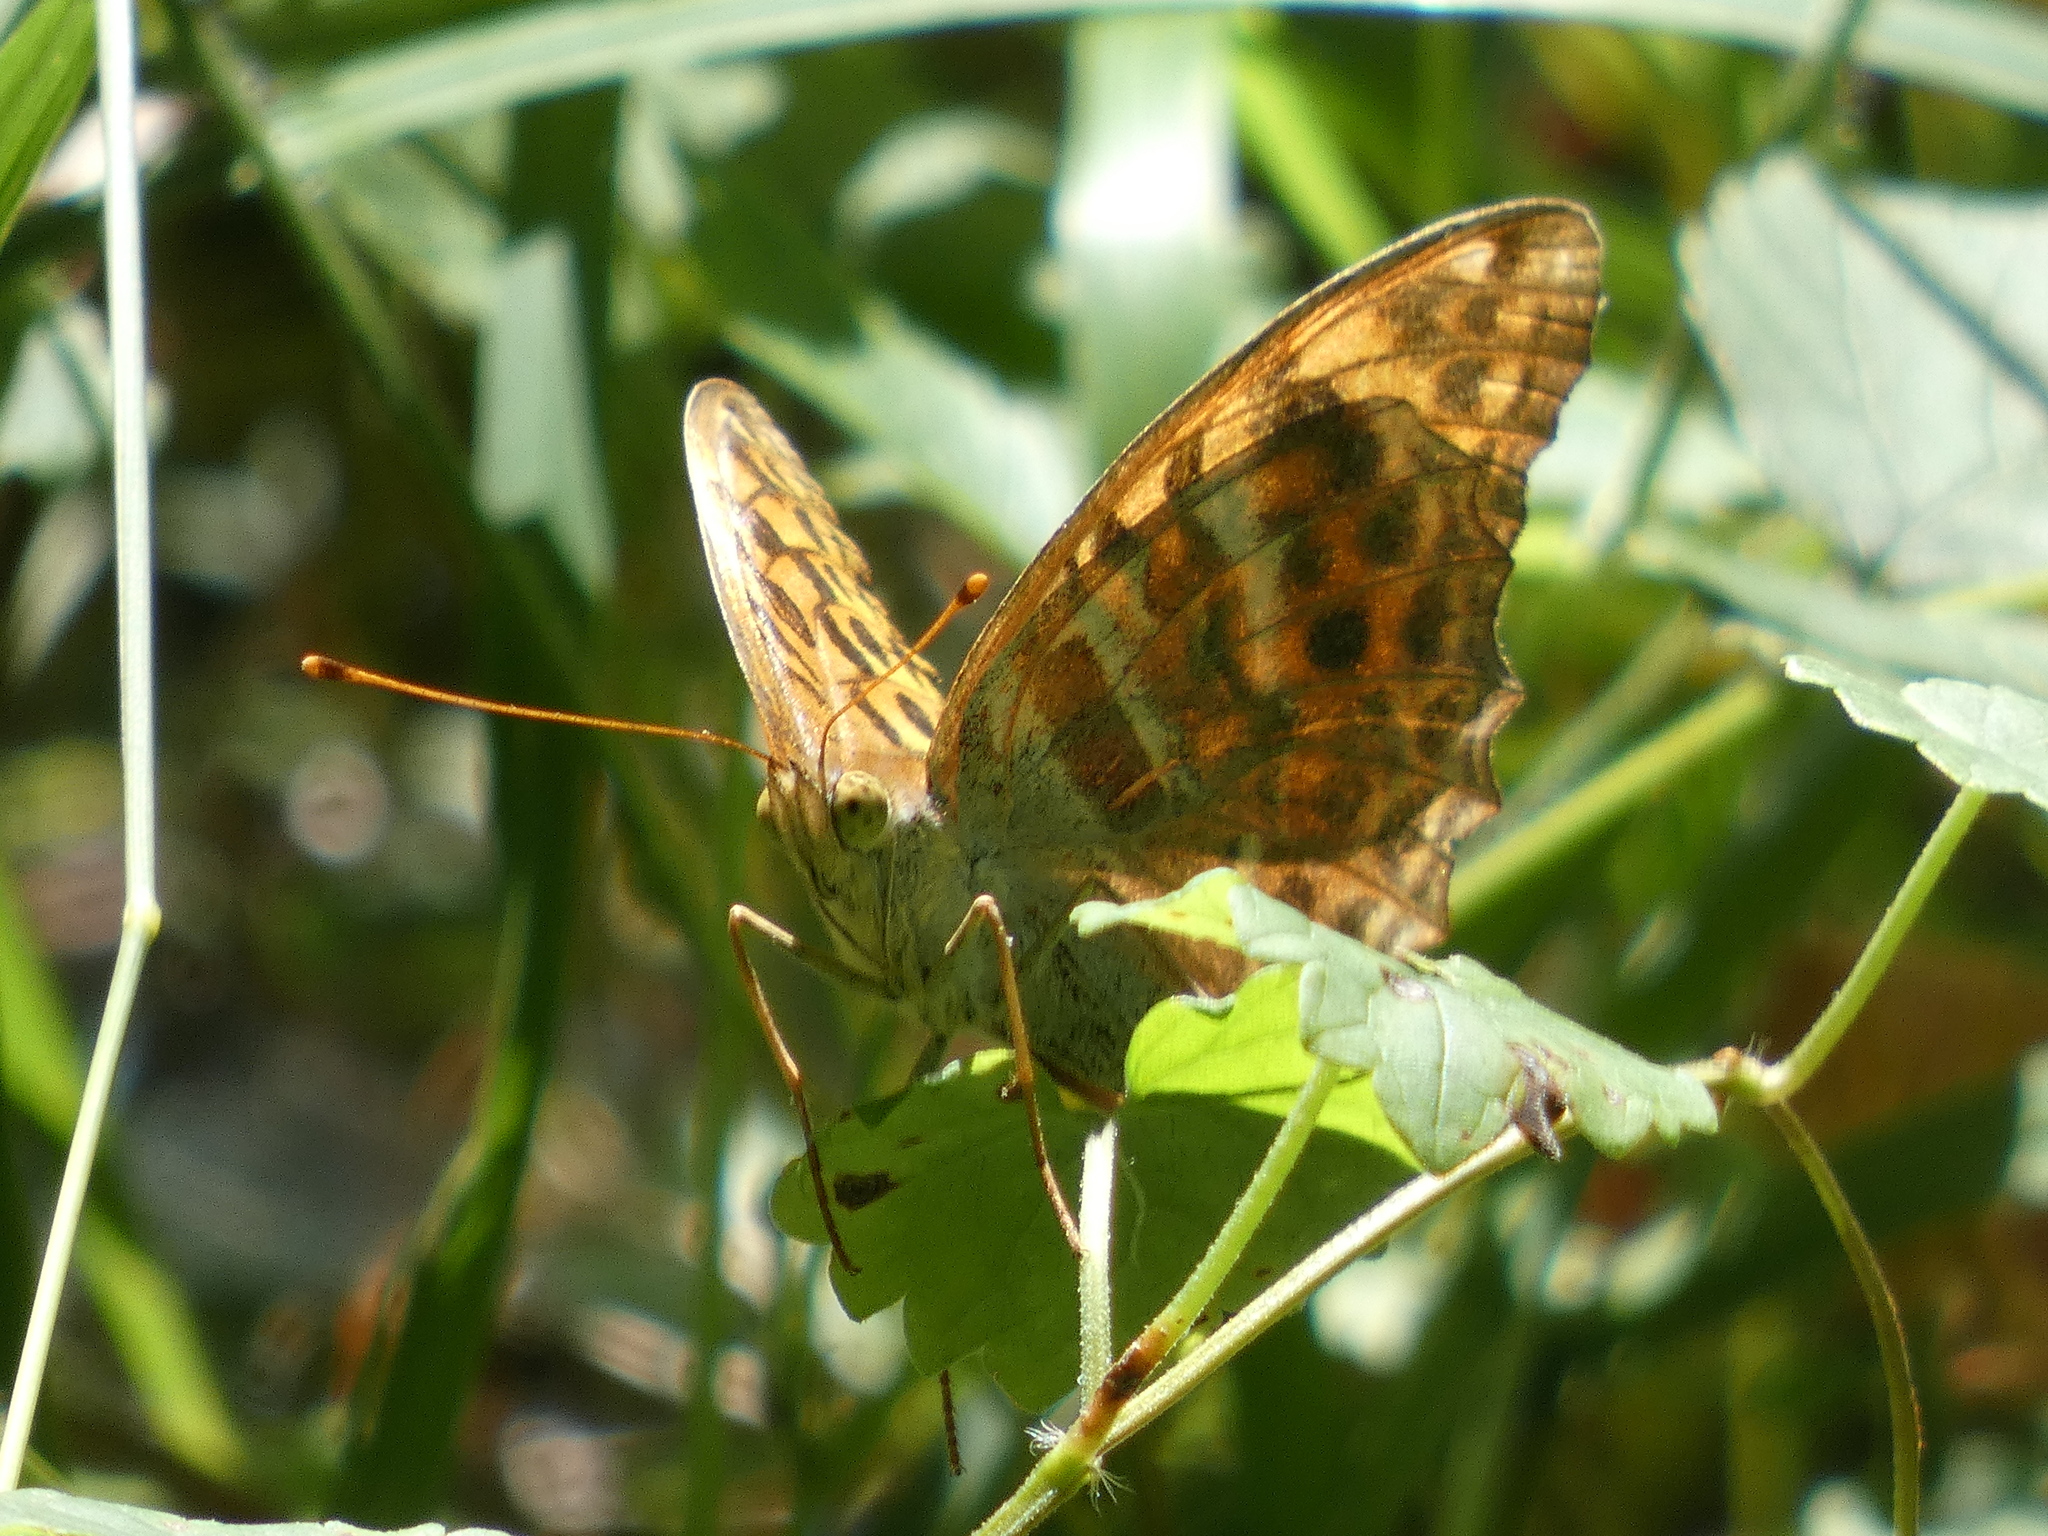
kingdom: Animalia
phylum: Arthropoda
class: Insecta
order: Lepidoptera
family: Nymphalidae
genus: Argynnis
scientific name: Argynnis paphia
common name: Silver-washed fritillary
